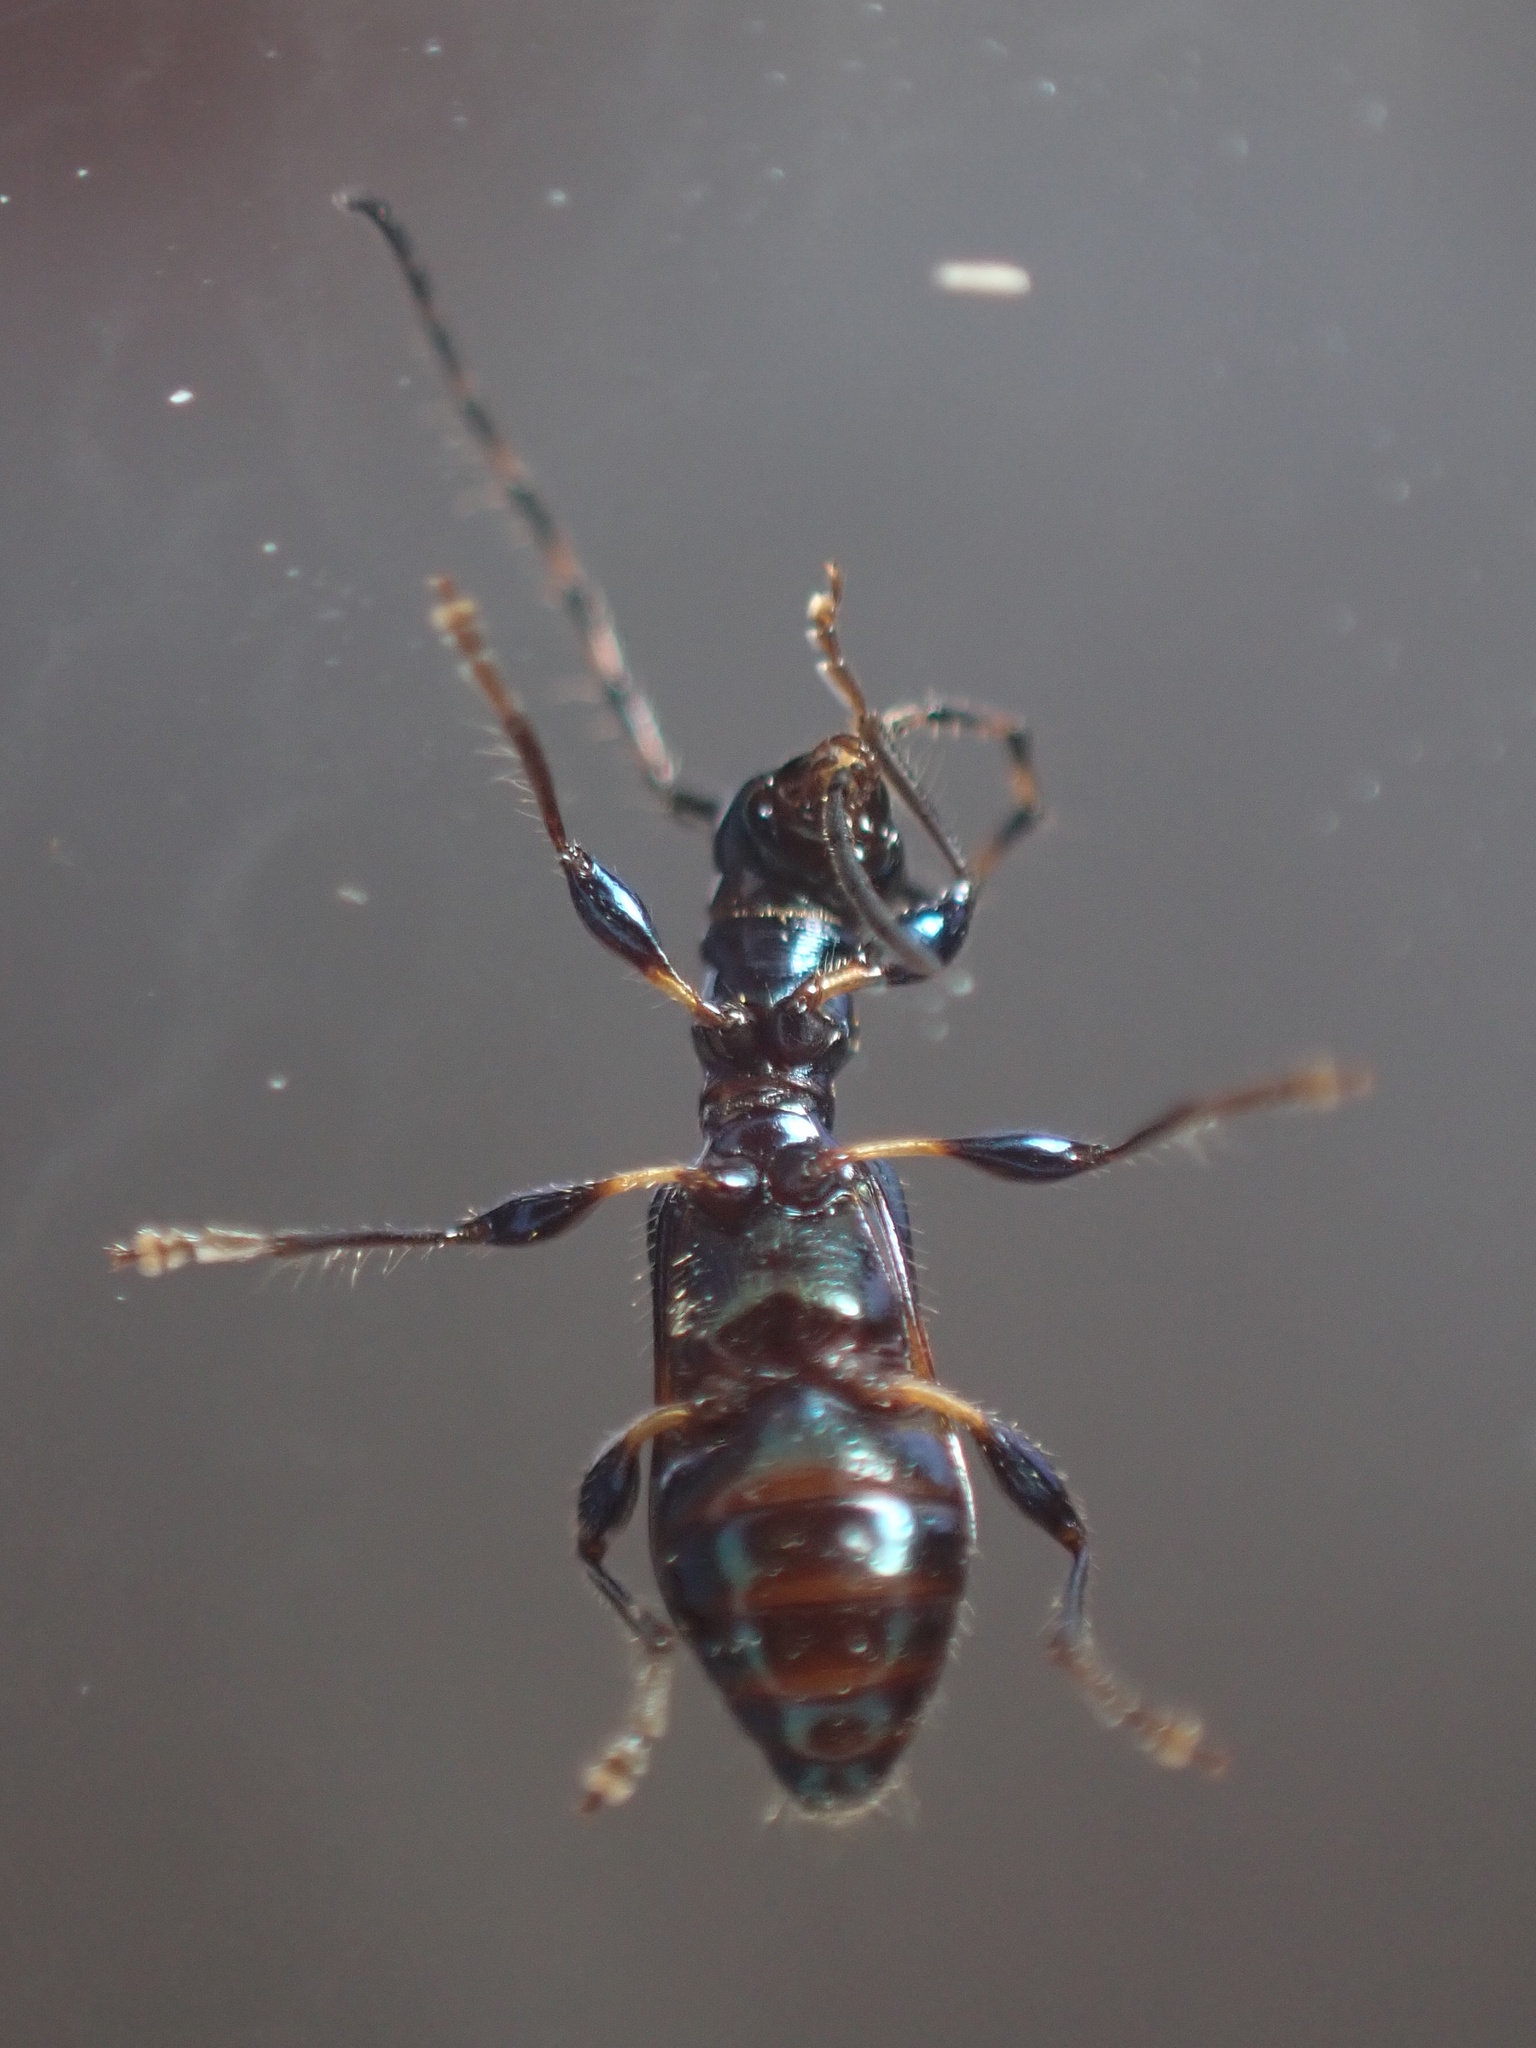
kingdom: Animalia
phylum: Arthropoda
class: Insecta
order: Coleoptera
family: Cerambycidae
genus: Zorion
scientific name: Zorion guttigerum
